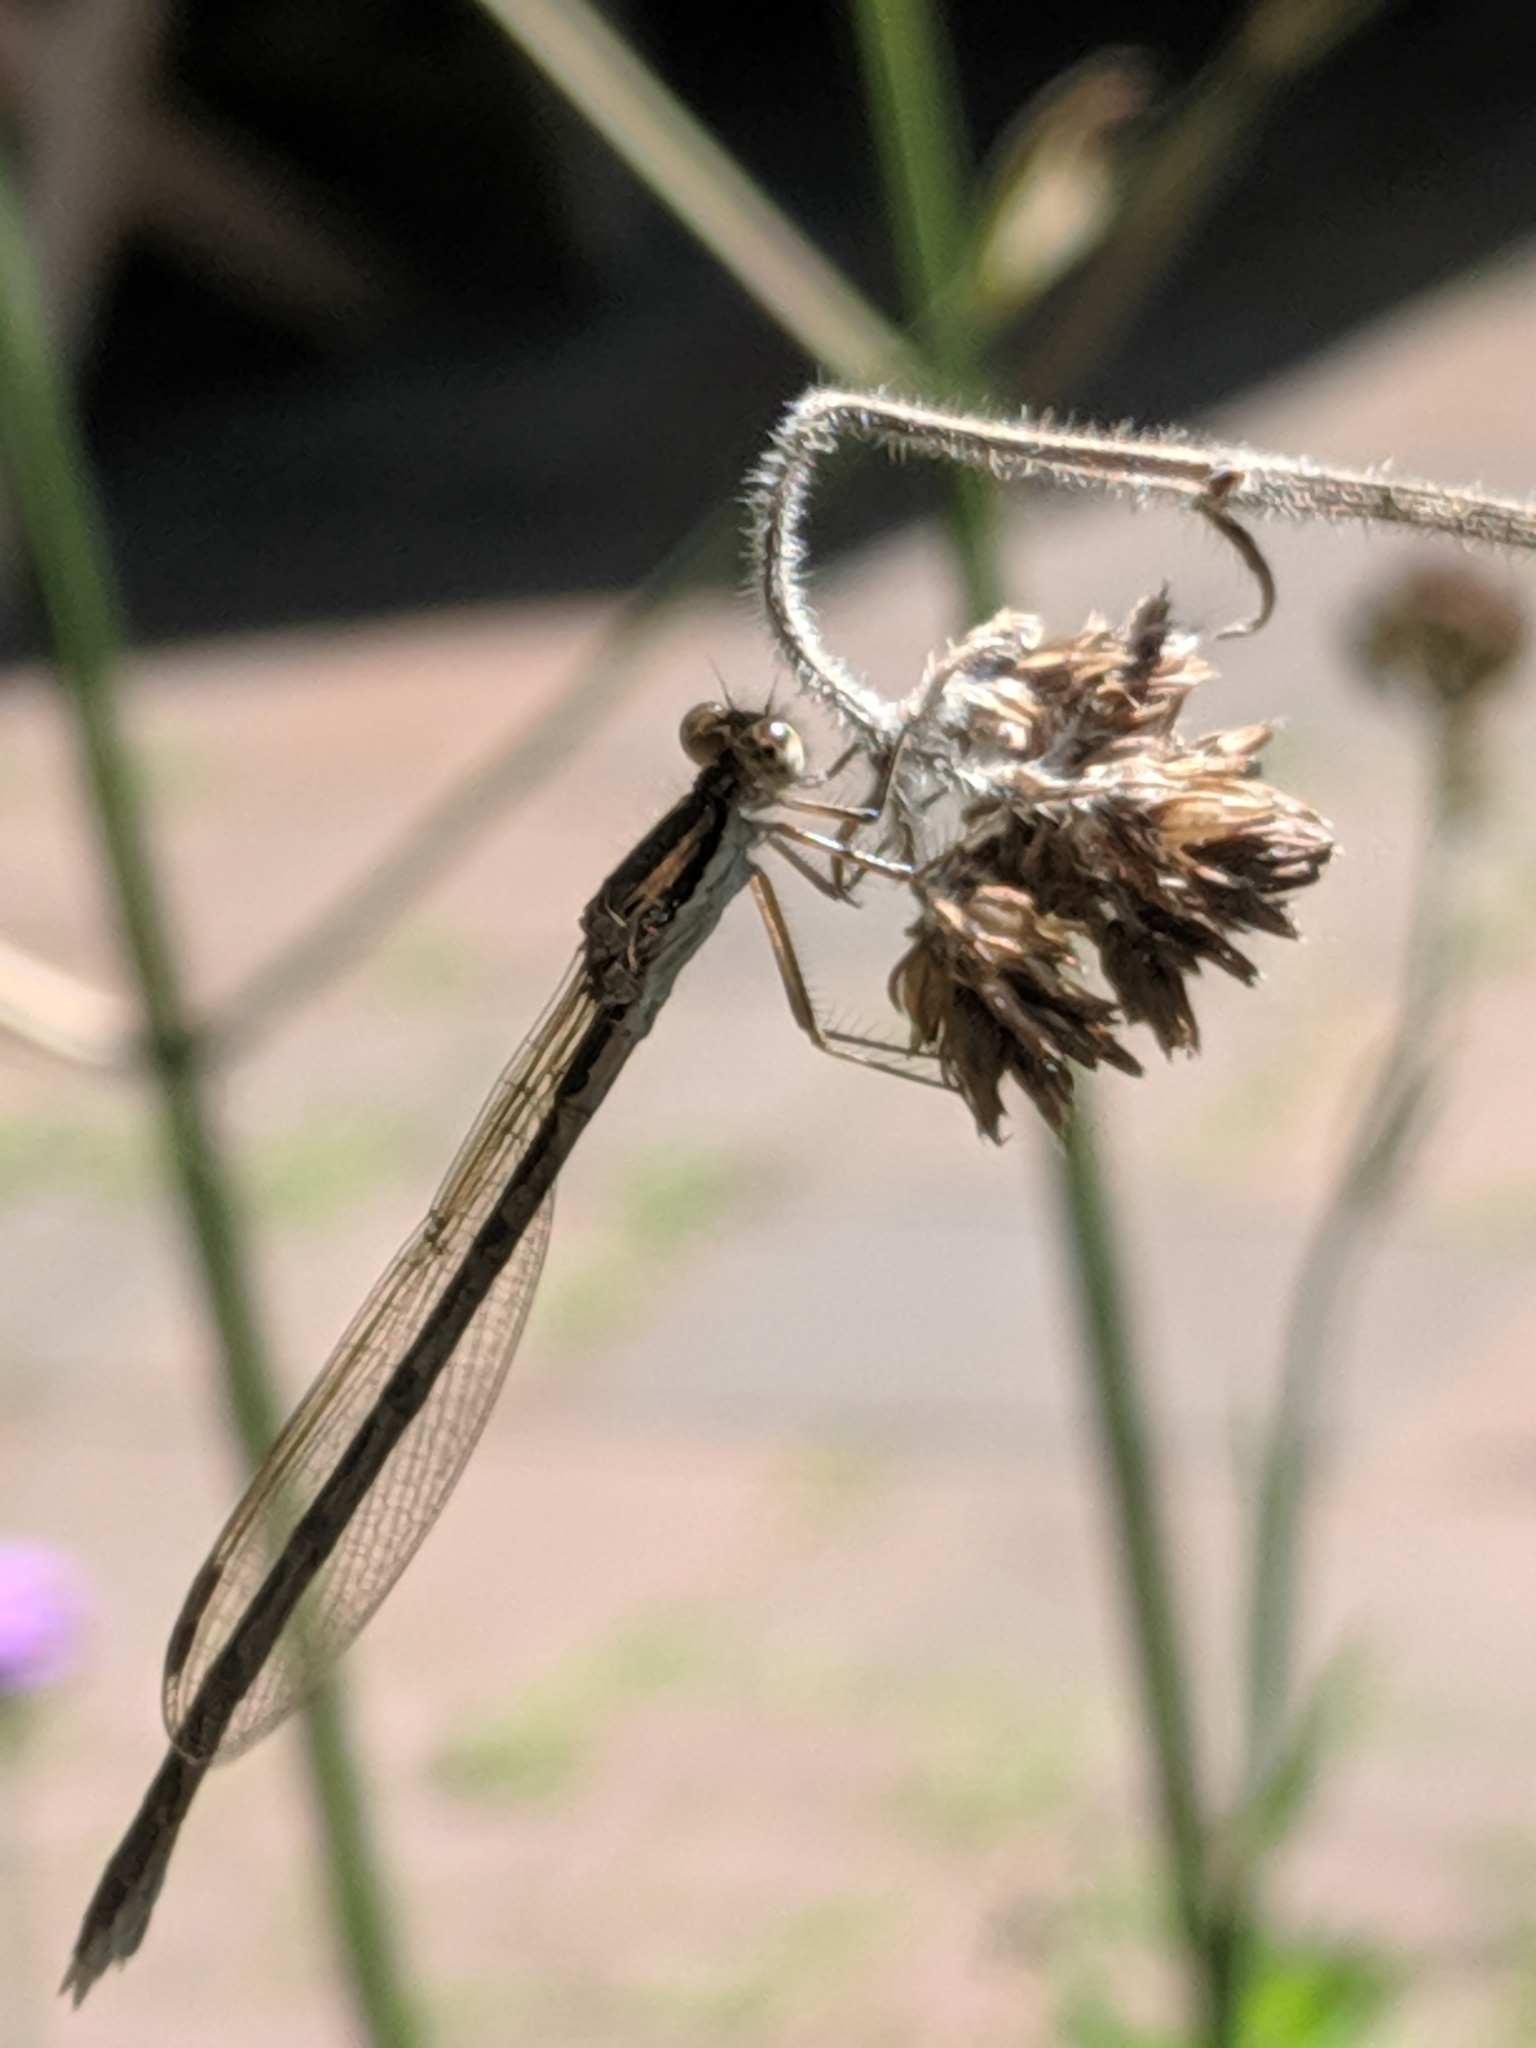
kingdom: Animalia
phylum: Arthropoda
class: Insecta
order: Odonata
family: Lestidae
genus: Sympecma
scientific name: Sympecma fusca
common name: Common winter damsel
